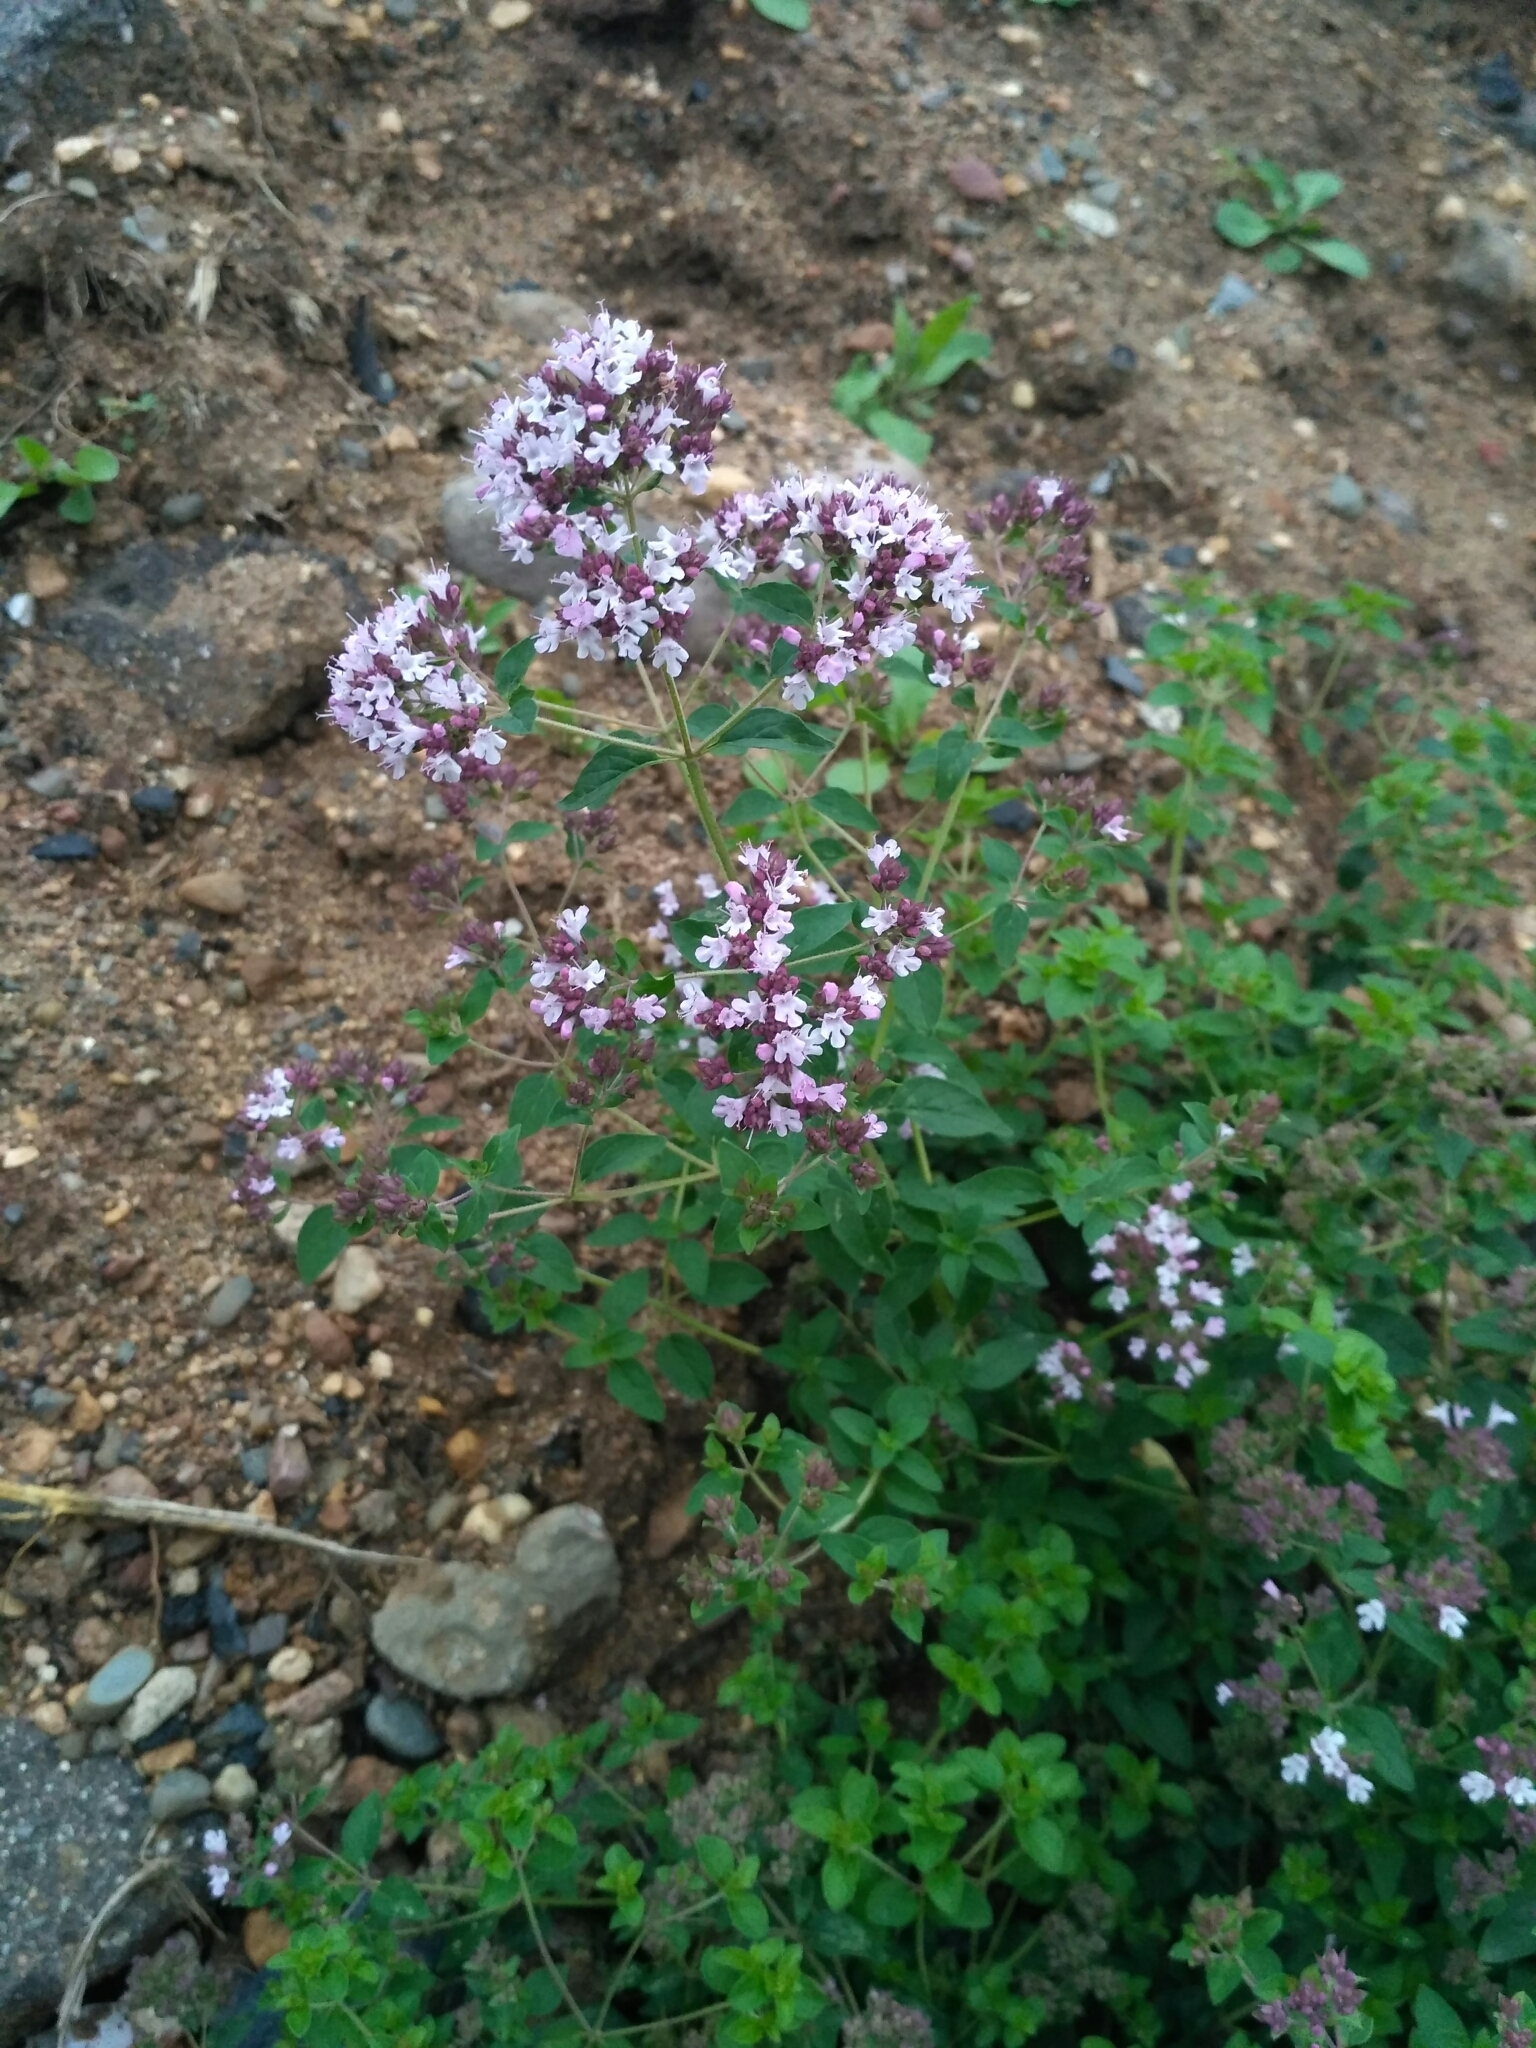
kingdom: Plantae
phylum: Tracheophyta
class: Magnoliopsida
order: Lamiales
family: Lamiaceae
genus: Origanum
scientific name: Origanum vulgare
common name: Wild marjoram
